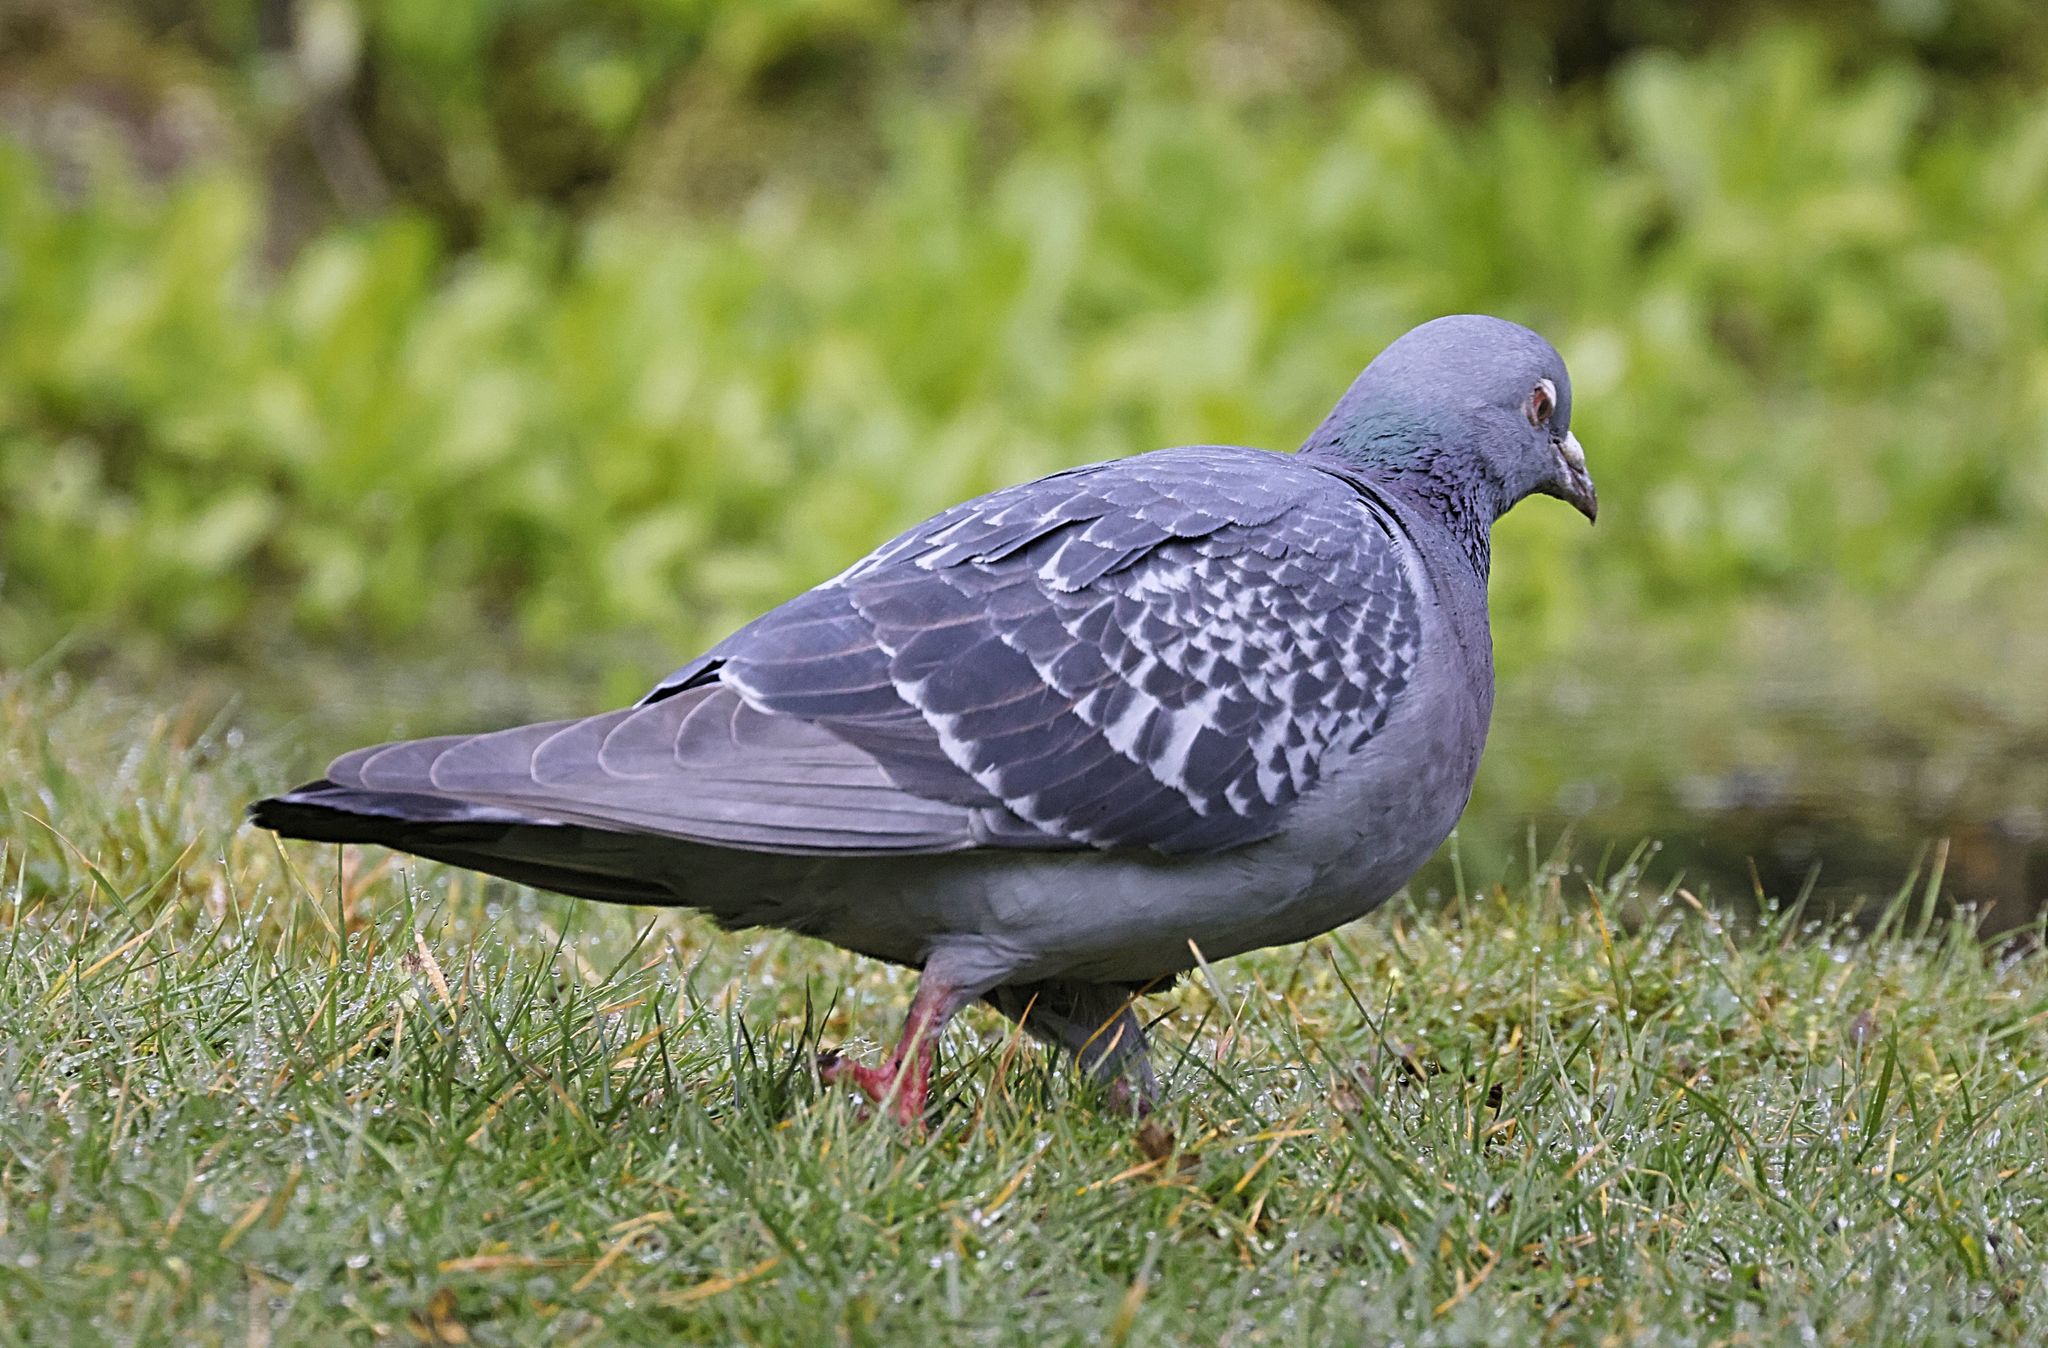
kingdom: Animalia
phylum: Chordata
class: Aves
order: Columbiformes
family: Columbidae
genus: Columba
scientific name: Columba livia
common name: Rock pigeon
